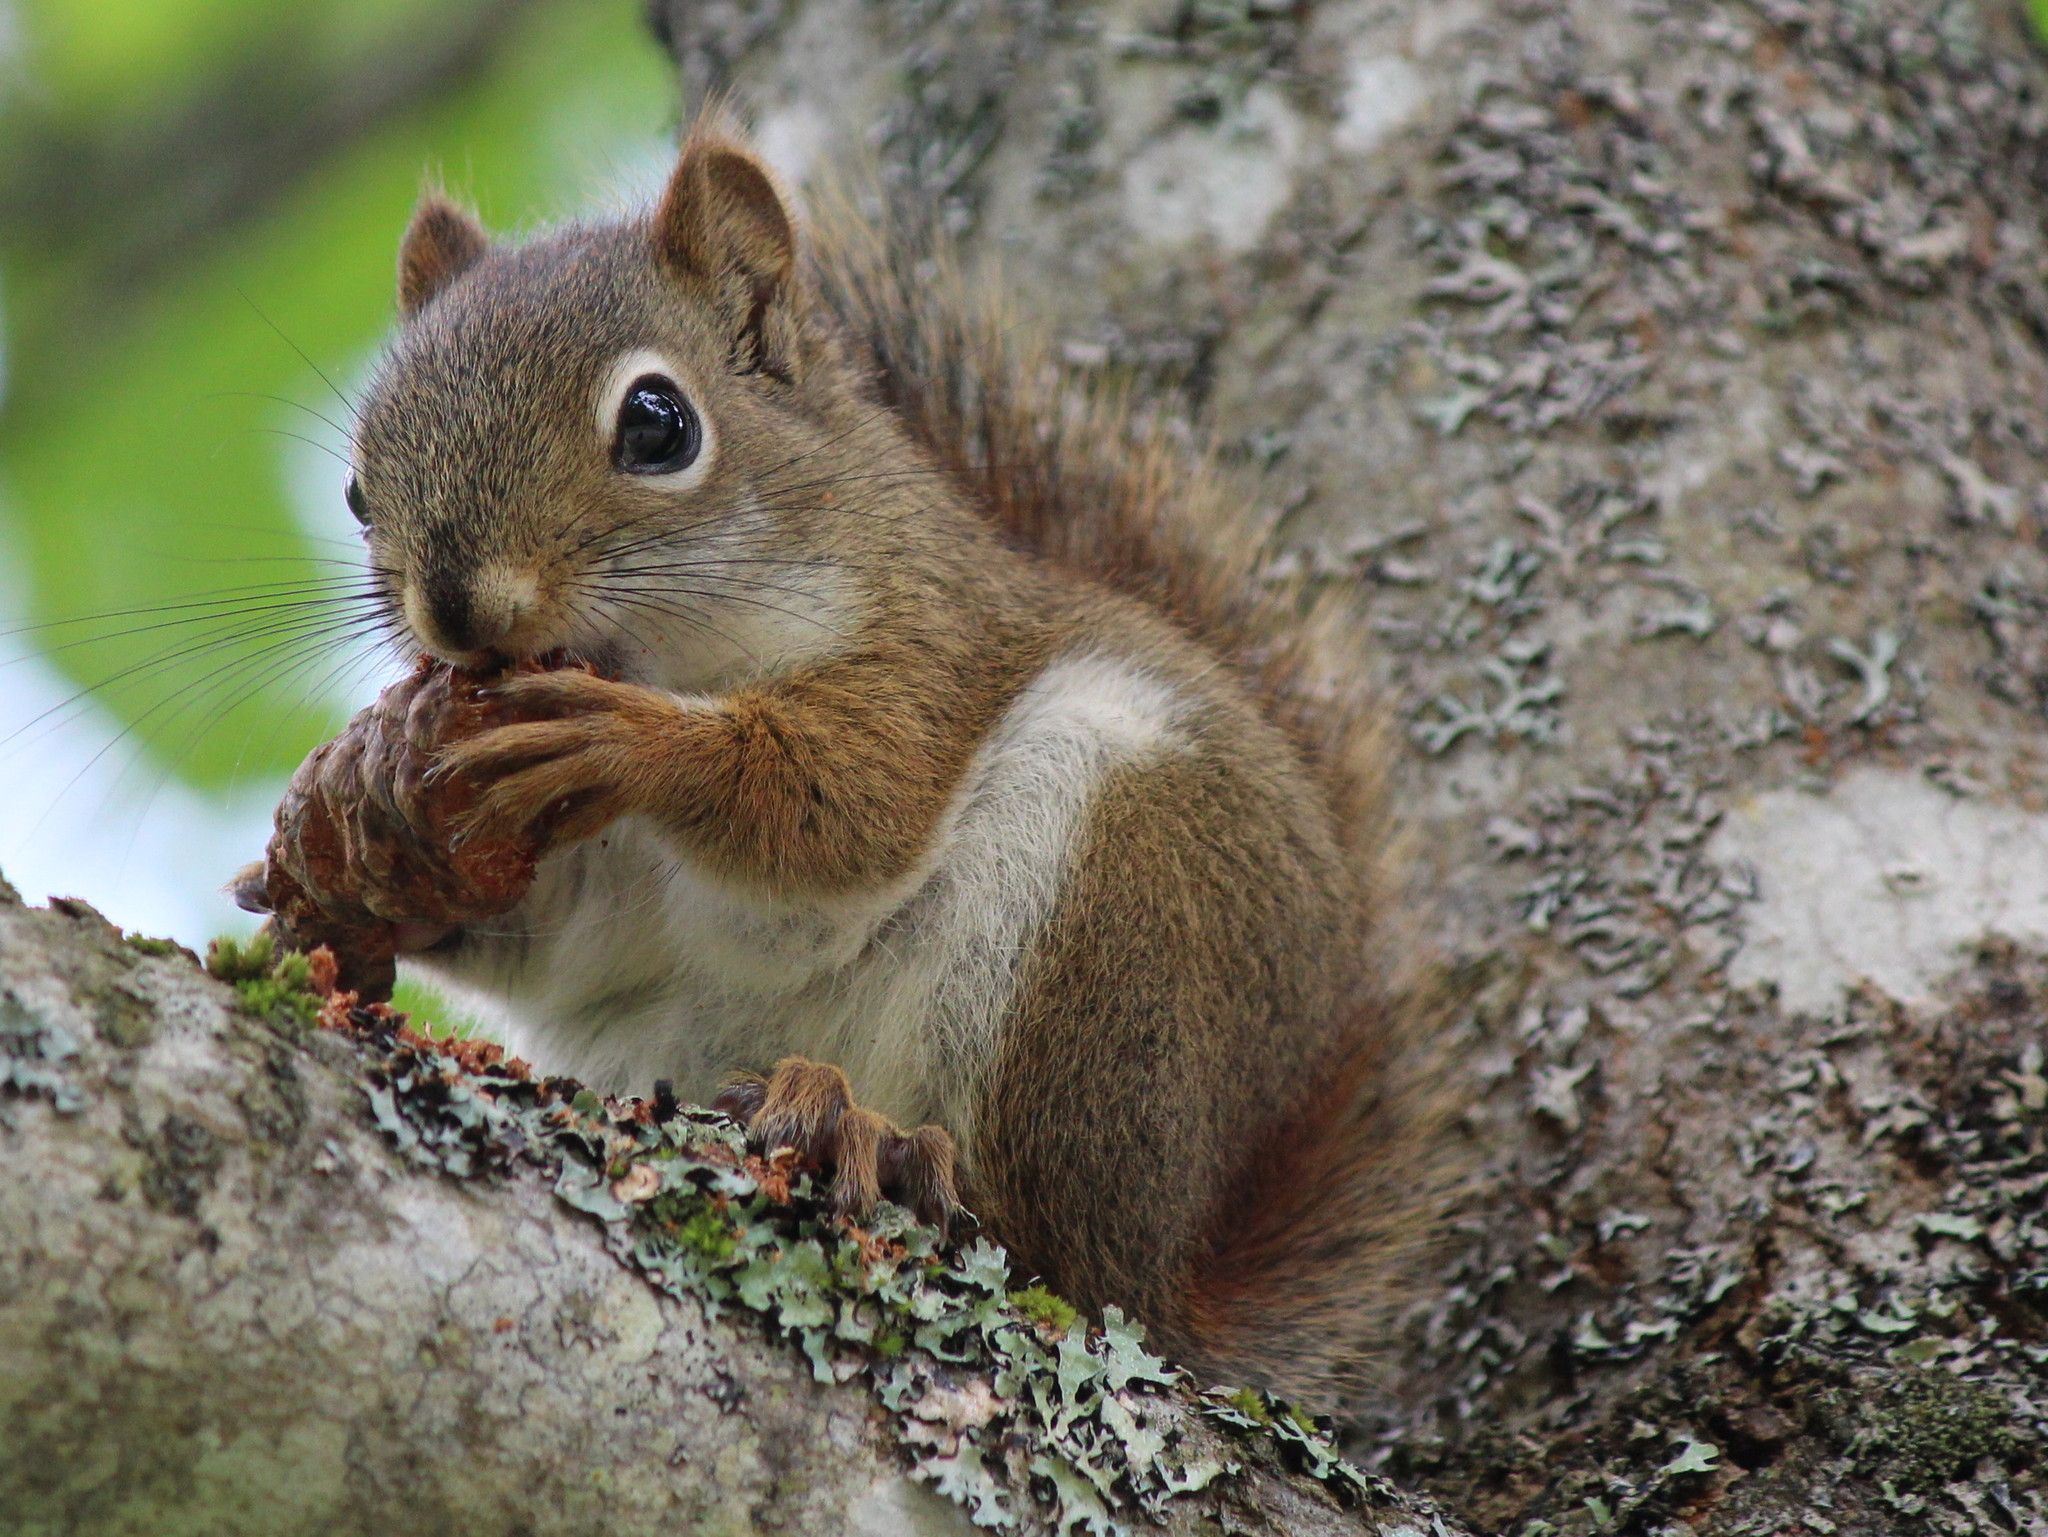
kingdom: Animalia
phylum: Chordata
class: Mammalia
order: Rodentia
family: Sciuridae
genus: Tamiasciurus
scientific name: Tamiasciurus hudsonicus
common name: Red squirrel
